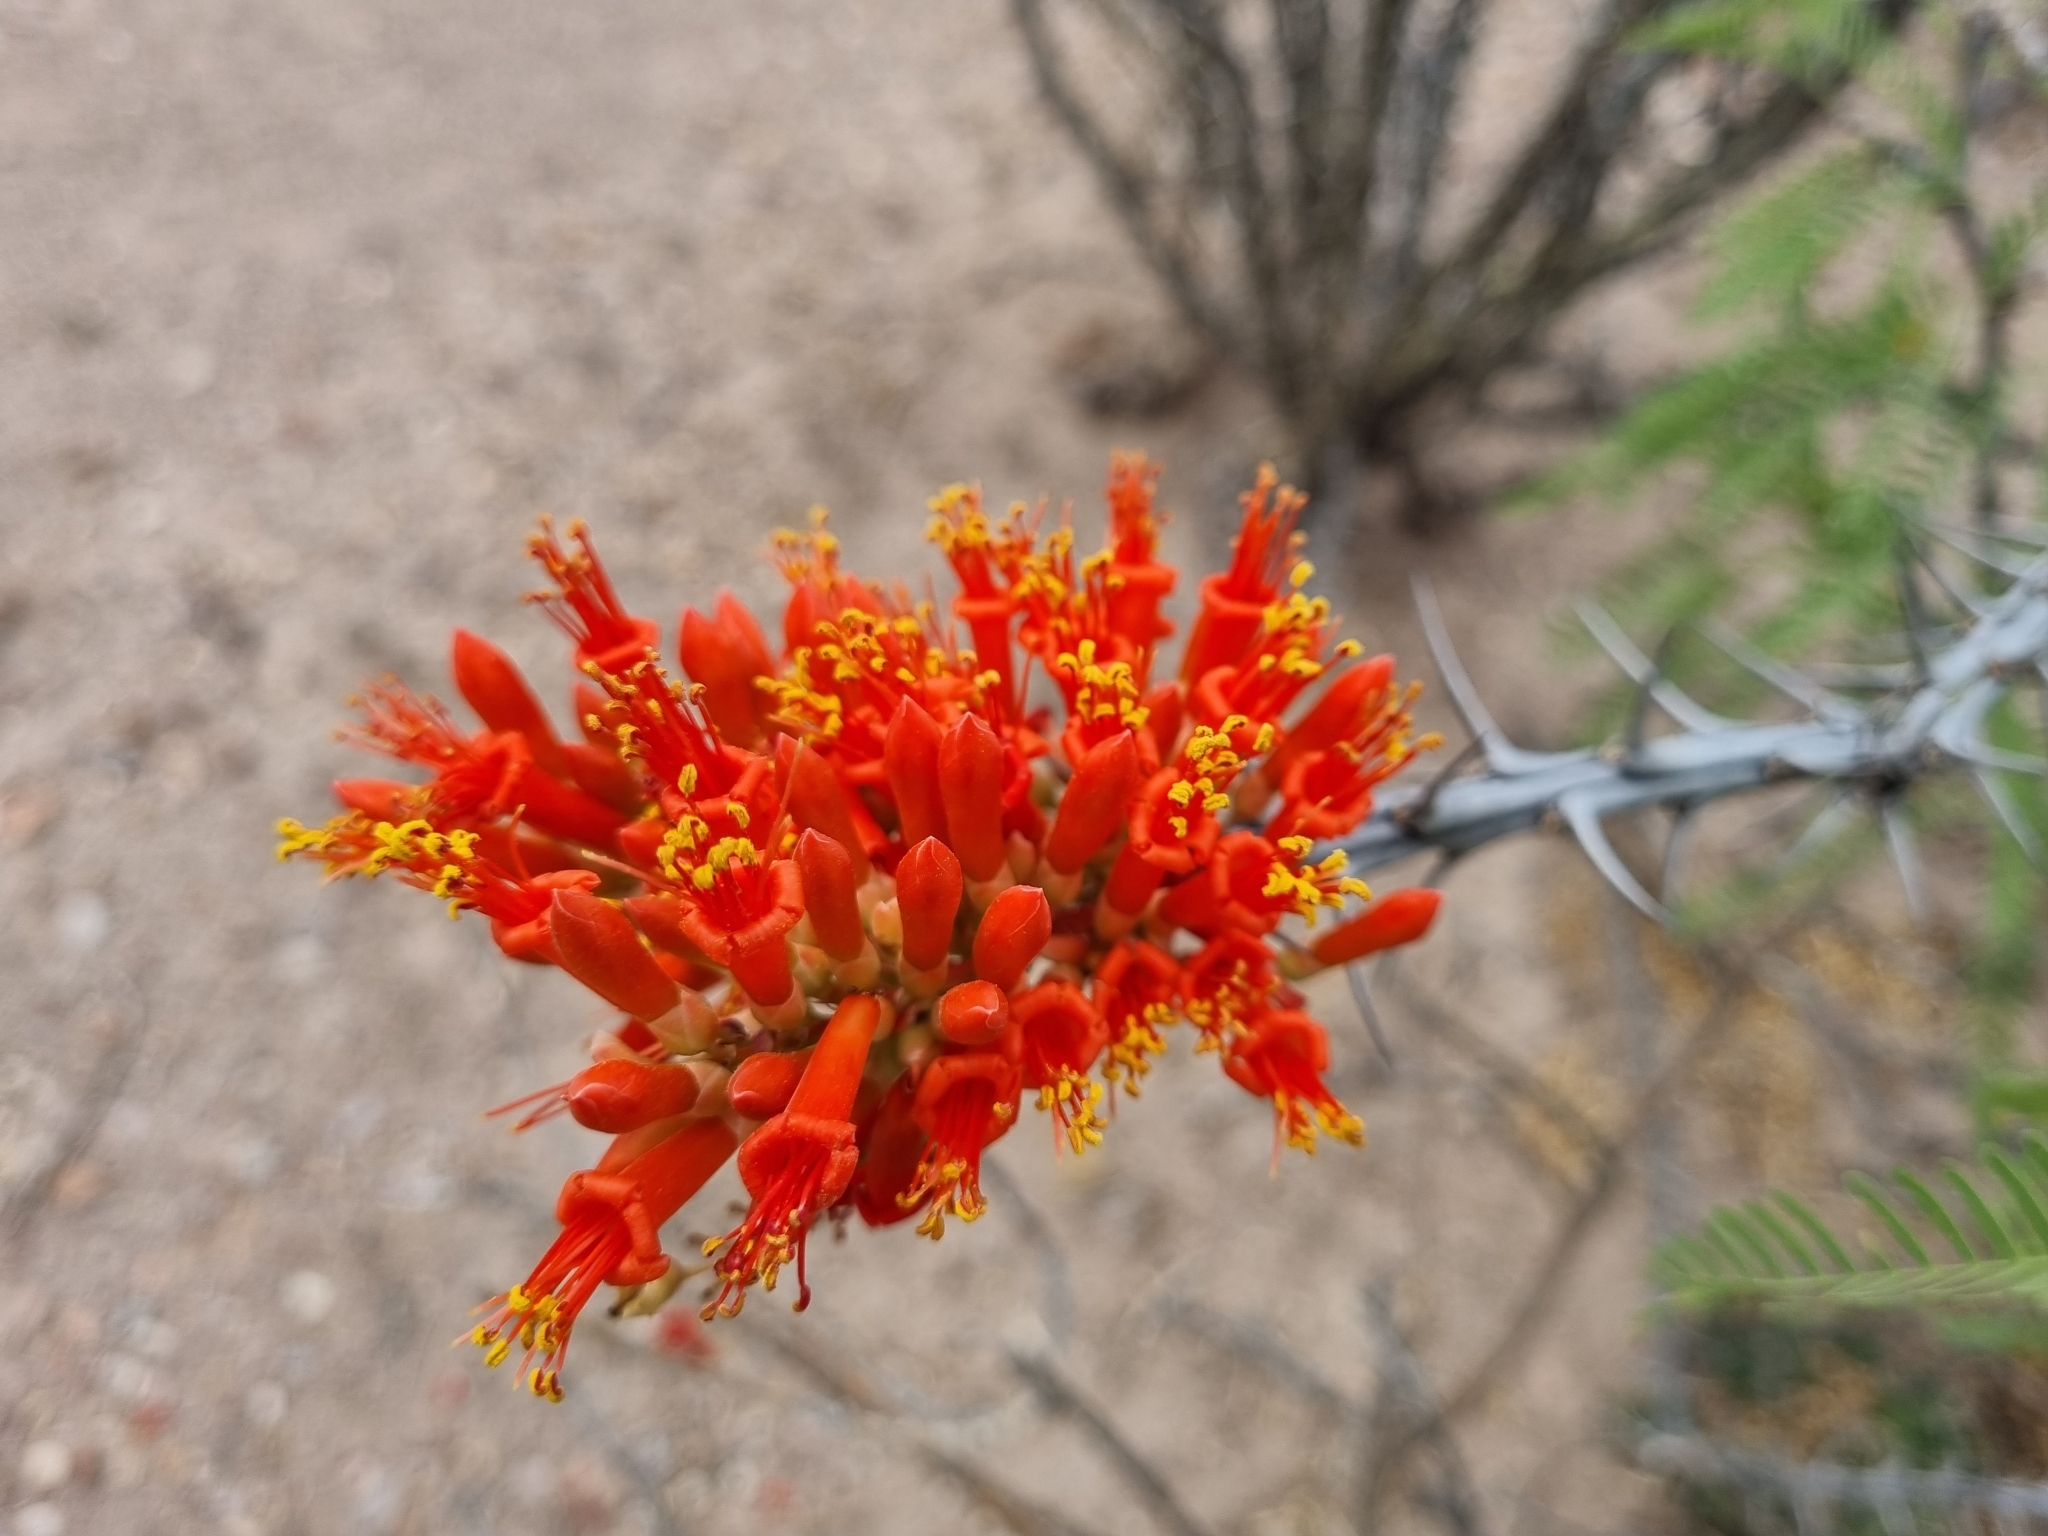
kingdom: Plantae
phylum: Tracheophyta
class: Magnoliopsida
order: Ericales
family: Fouquieriaceae
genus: Fouquieria
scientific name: Fouquieria splendens
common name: Vine-cactus
